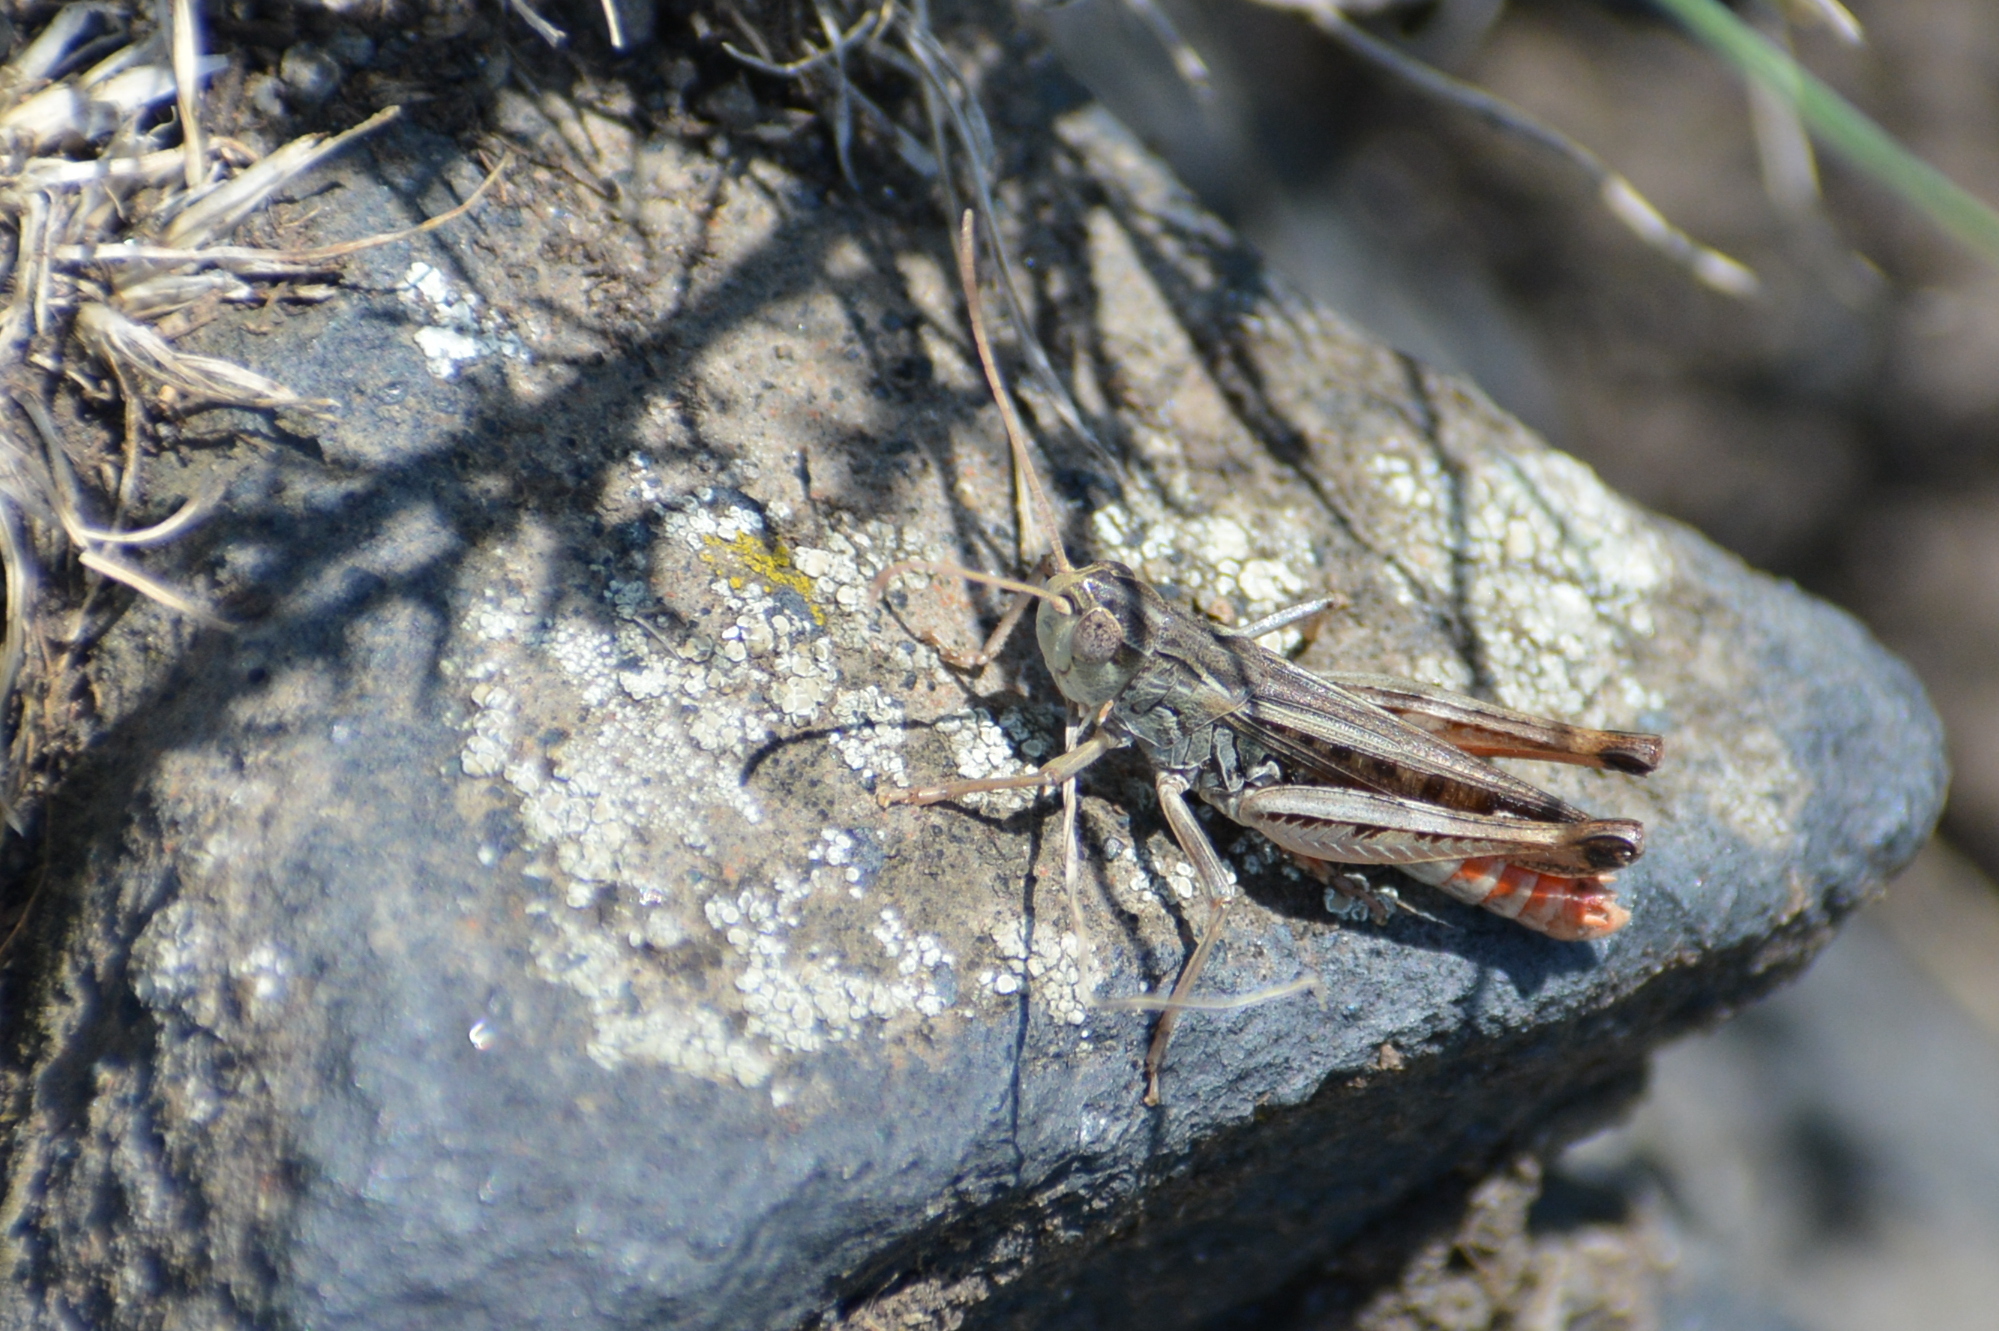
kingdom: Animalia
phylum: Arthropoda
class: Insecta
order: Orthoptera
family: Acrididae
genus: Stenobothrus
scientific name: Stenobothrus nigromaculatus
